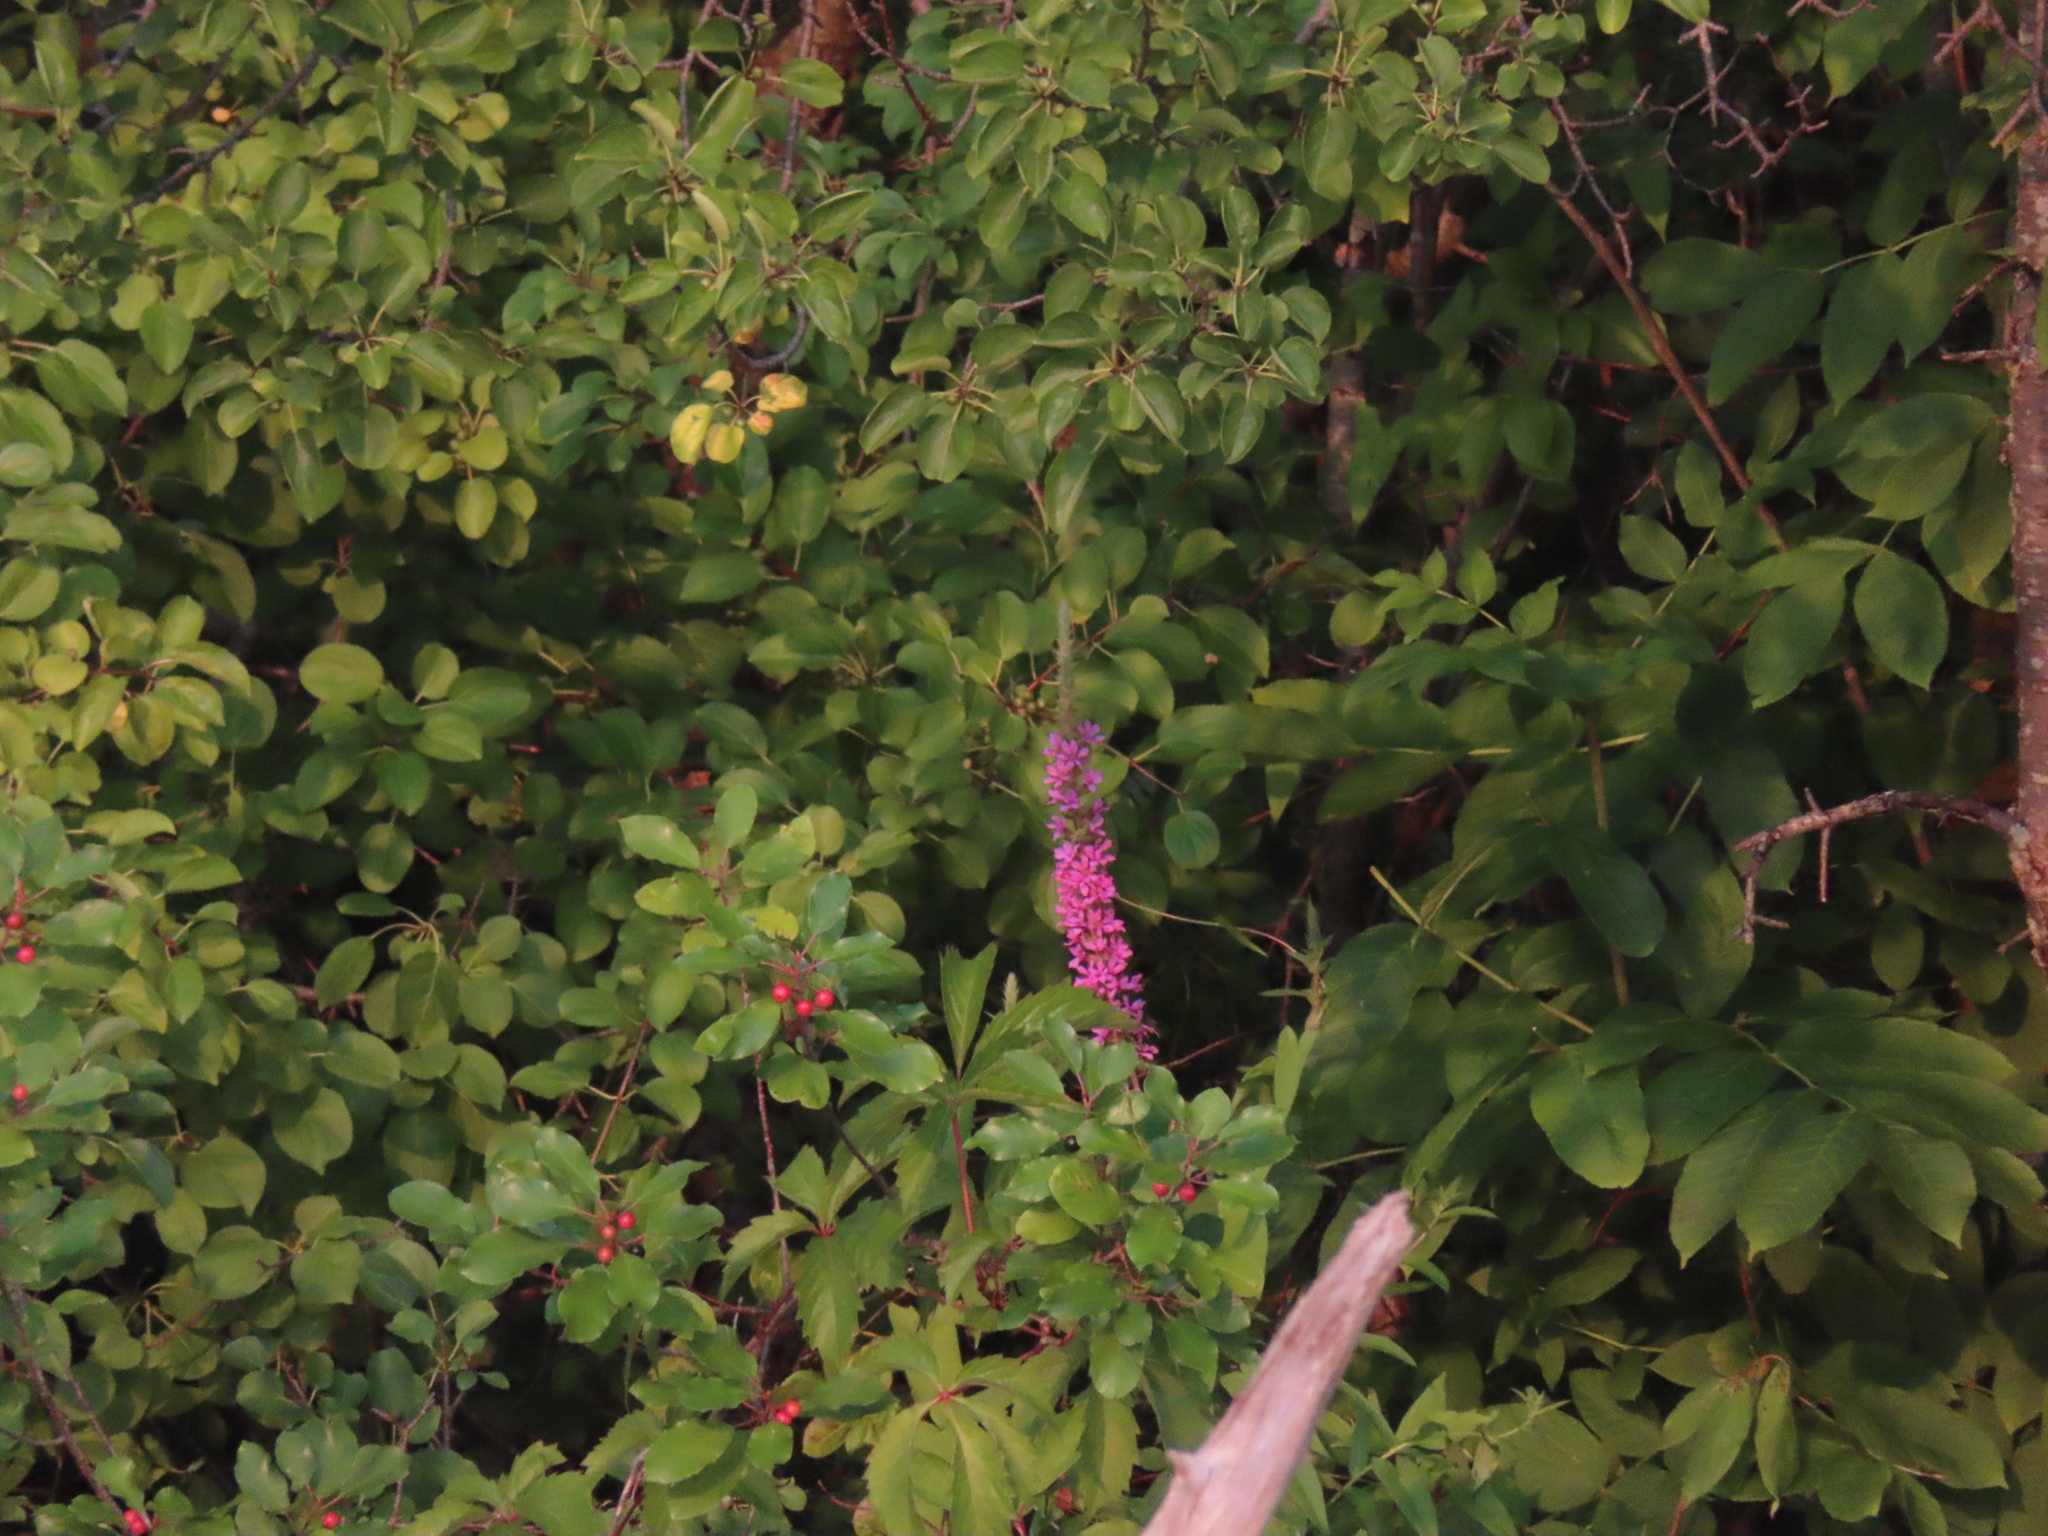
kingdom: Plantae
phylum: Tracheophyta
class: Magnoliopsida
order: Myrtales
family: Lythraceae
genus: Lythrum
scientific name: Lythrum salicaria
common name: Purple loosestrife
